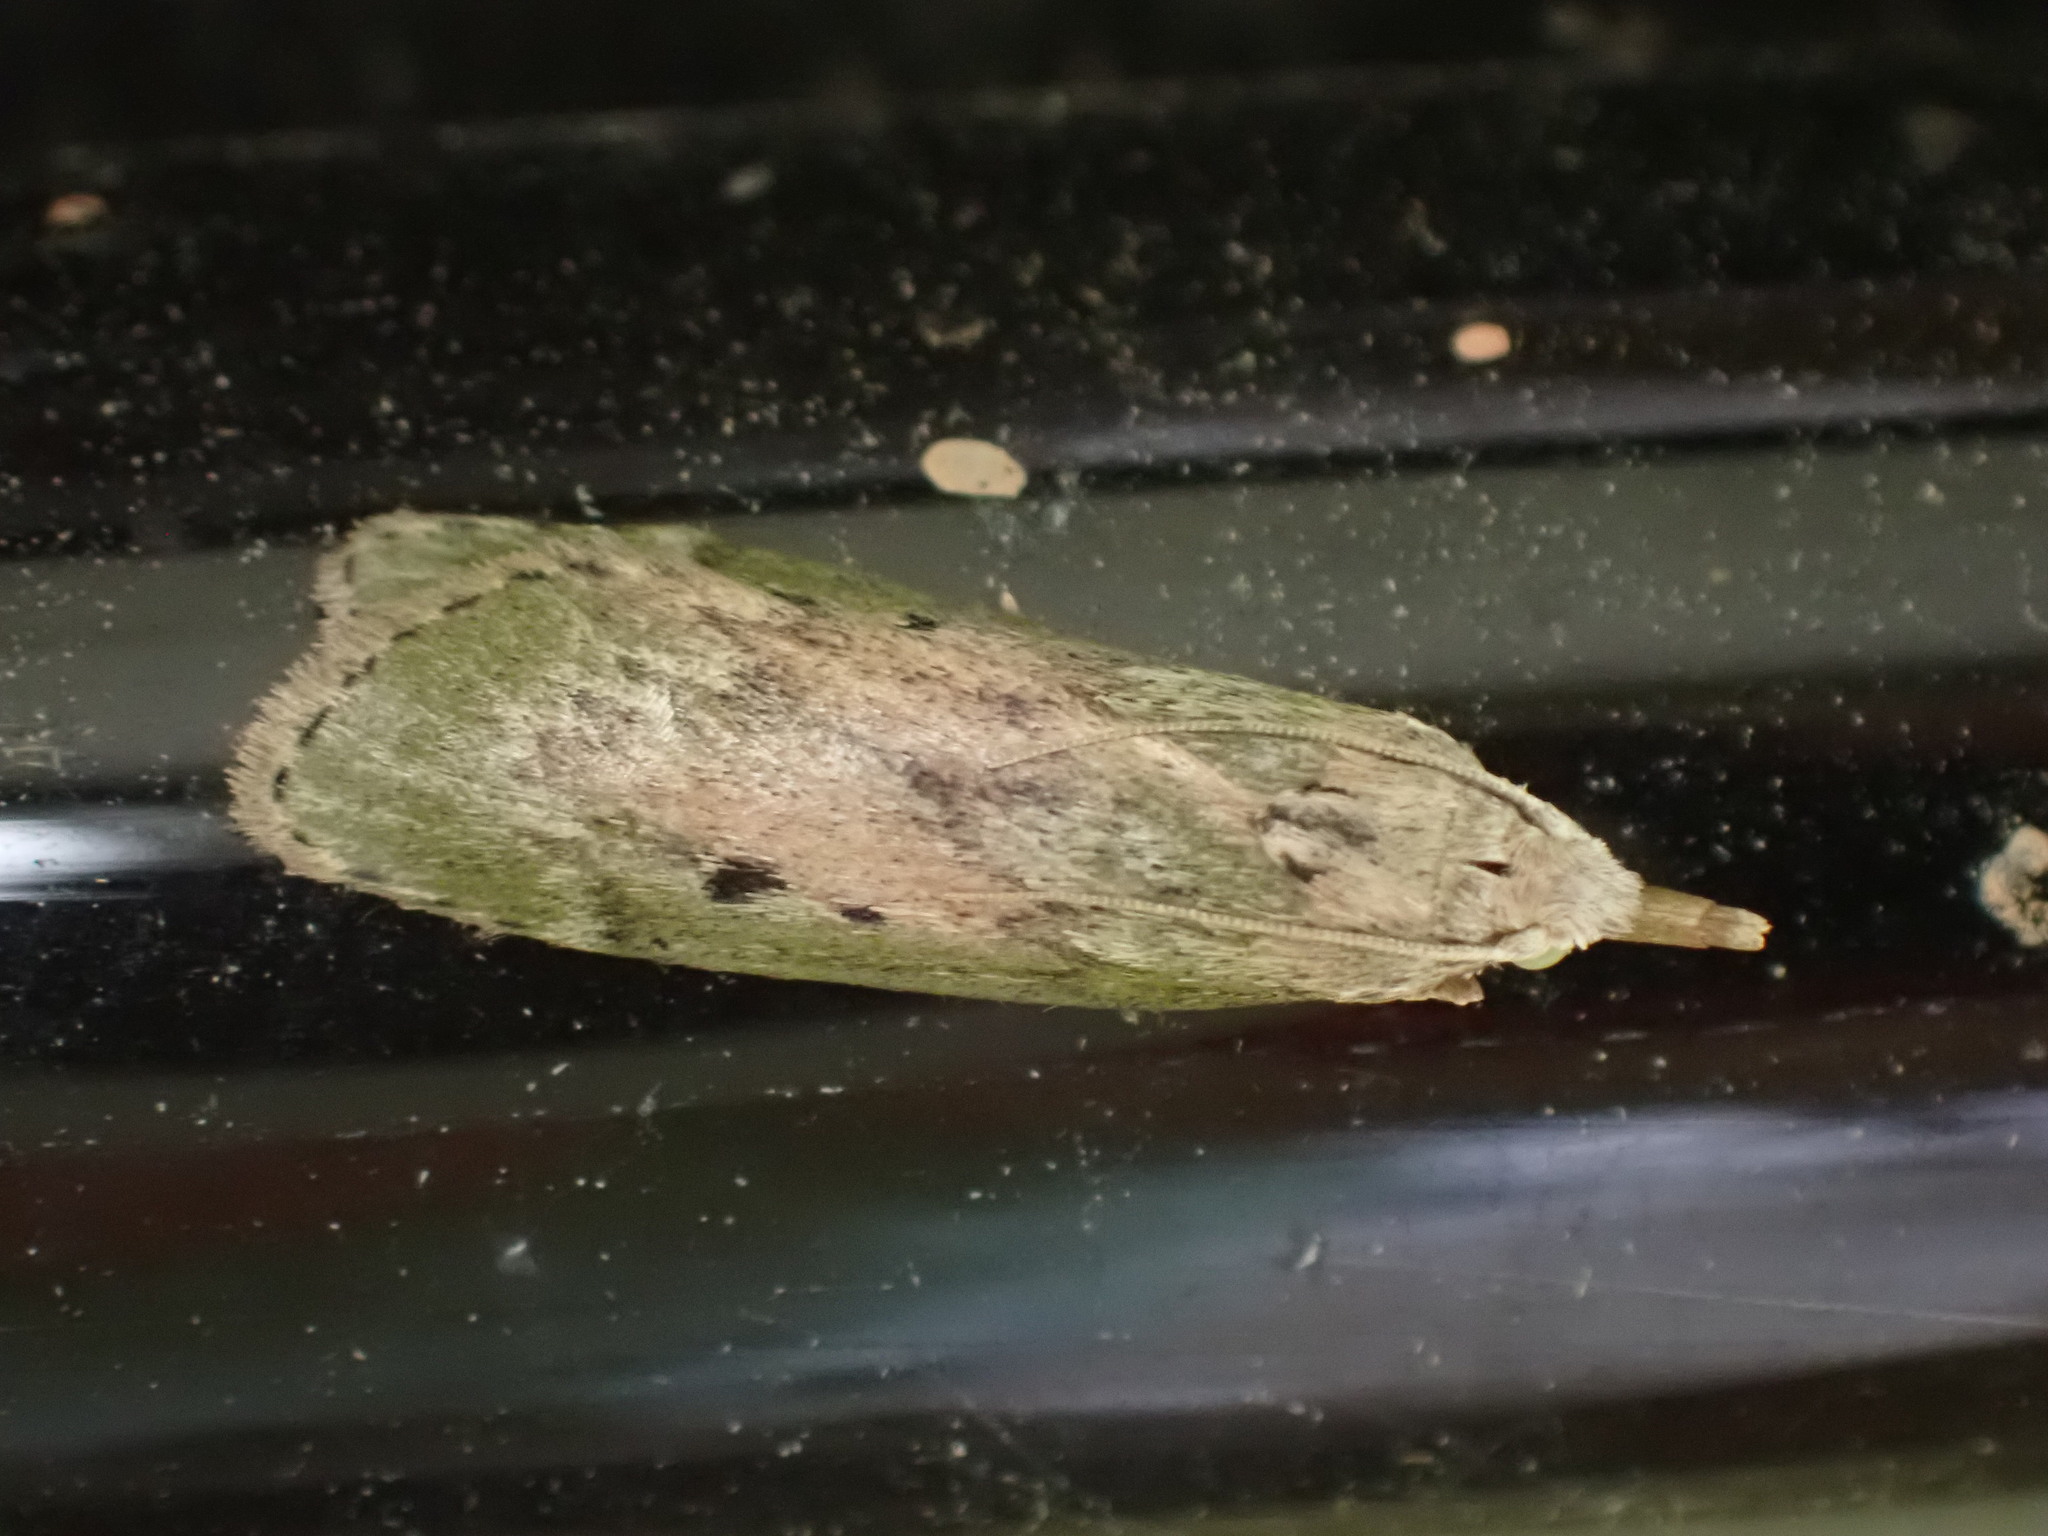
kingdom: Animalia
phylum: Arthropoda
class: Insecta
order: Lepidoptera
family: Pyralidae
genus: Aphomia
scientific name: Aphomia sociella
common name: Bee moth
